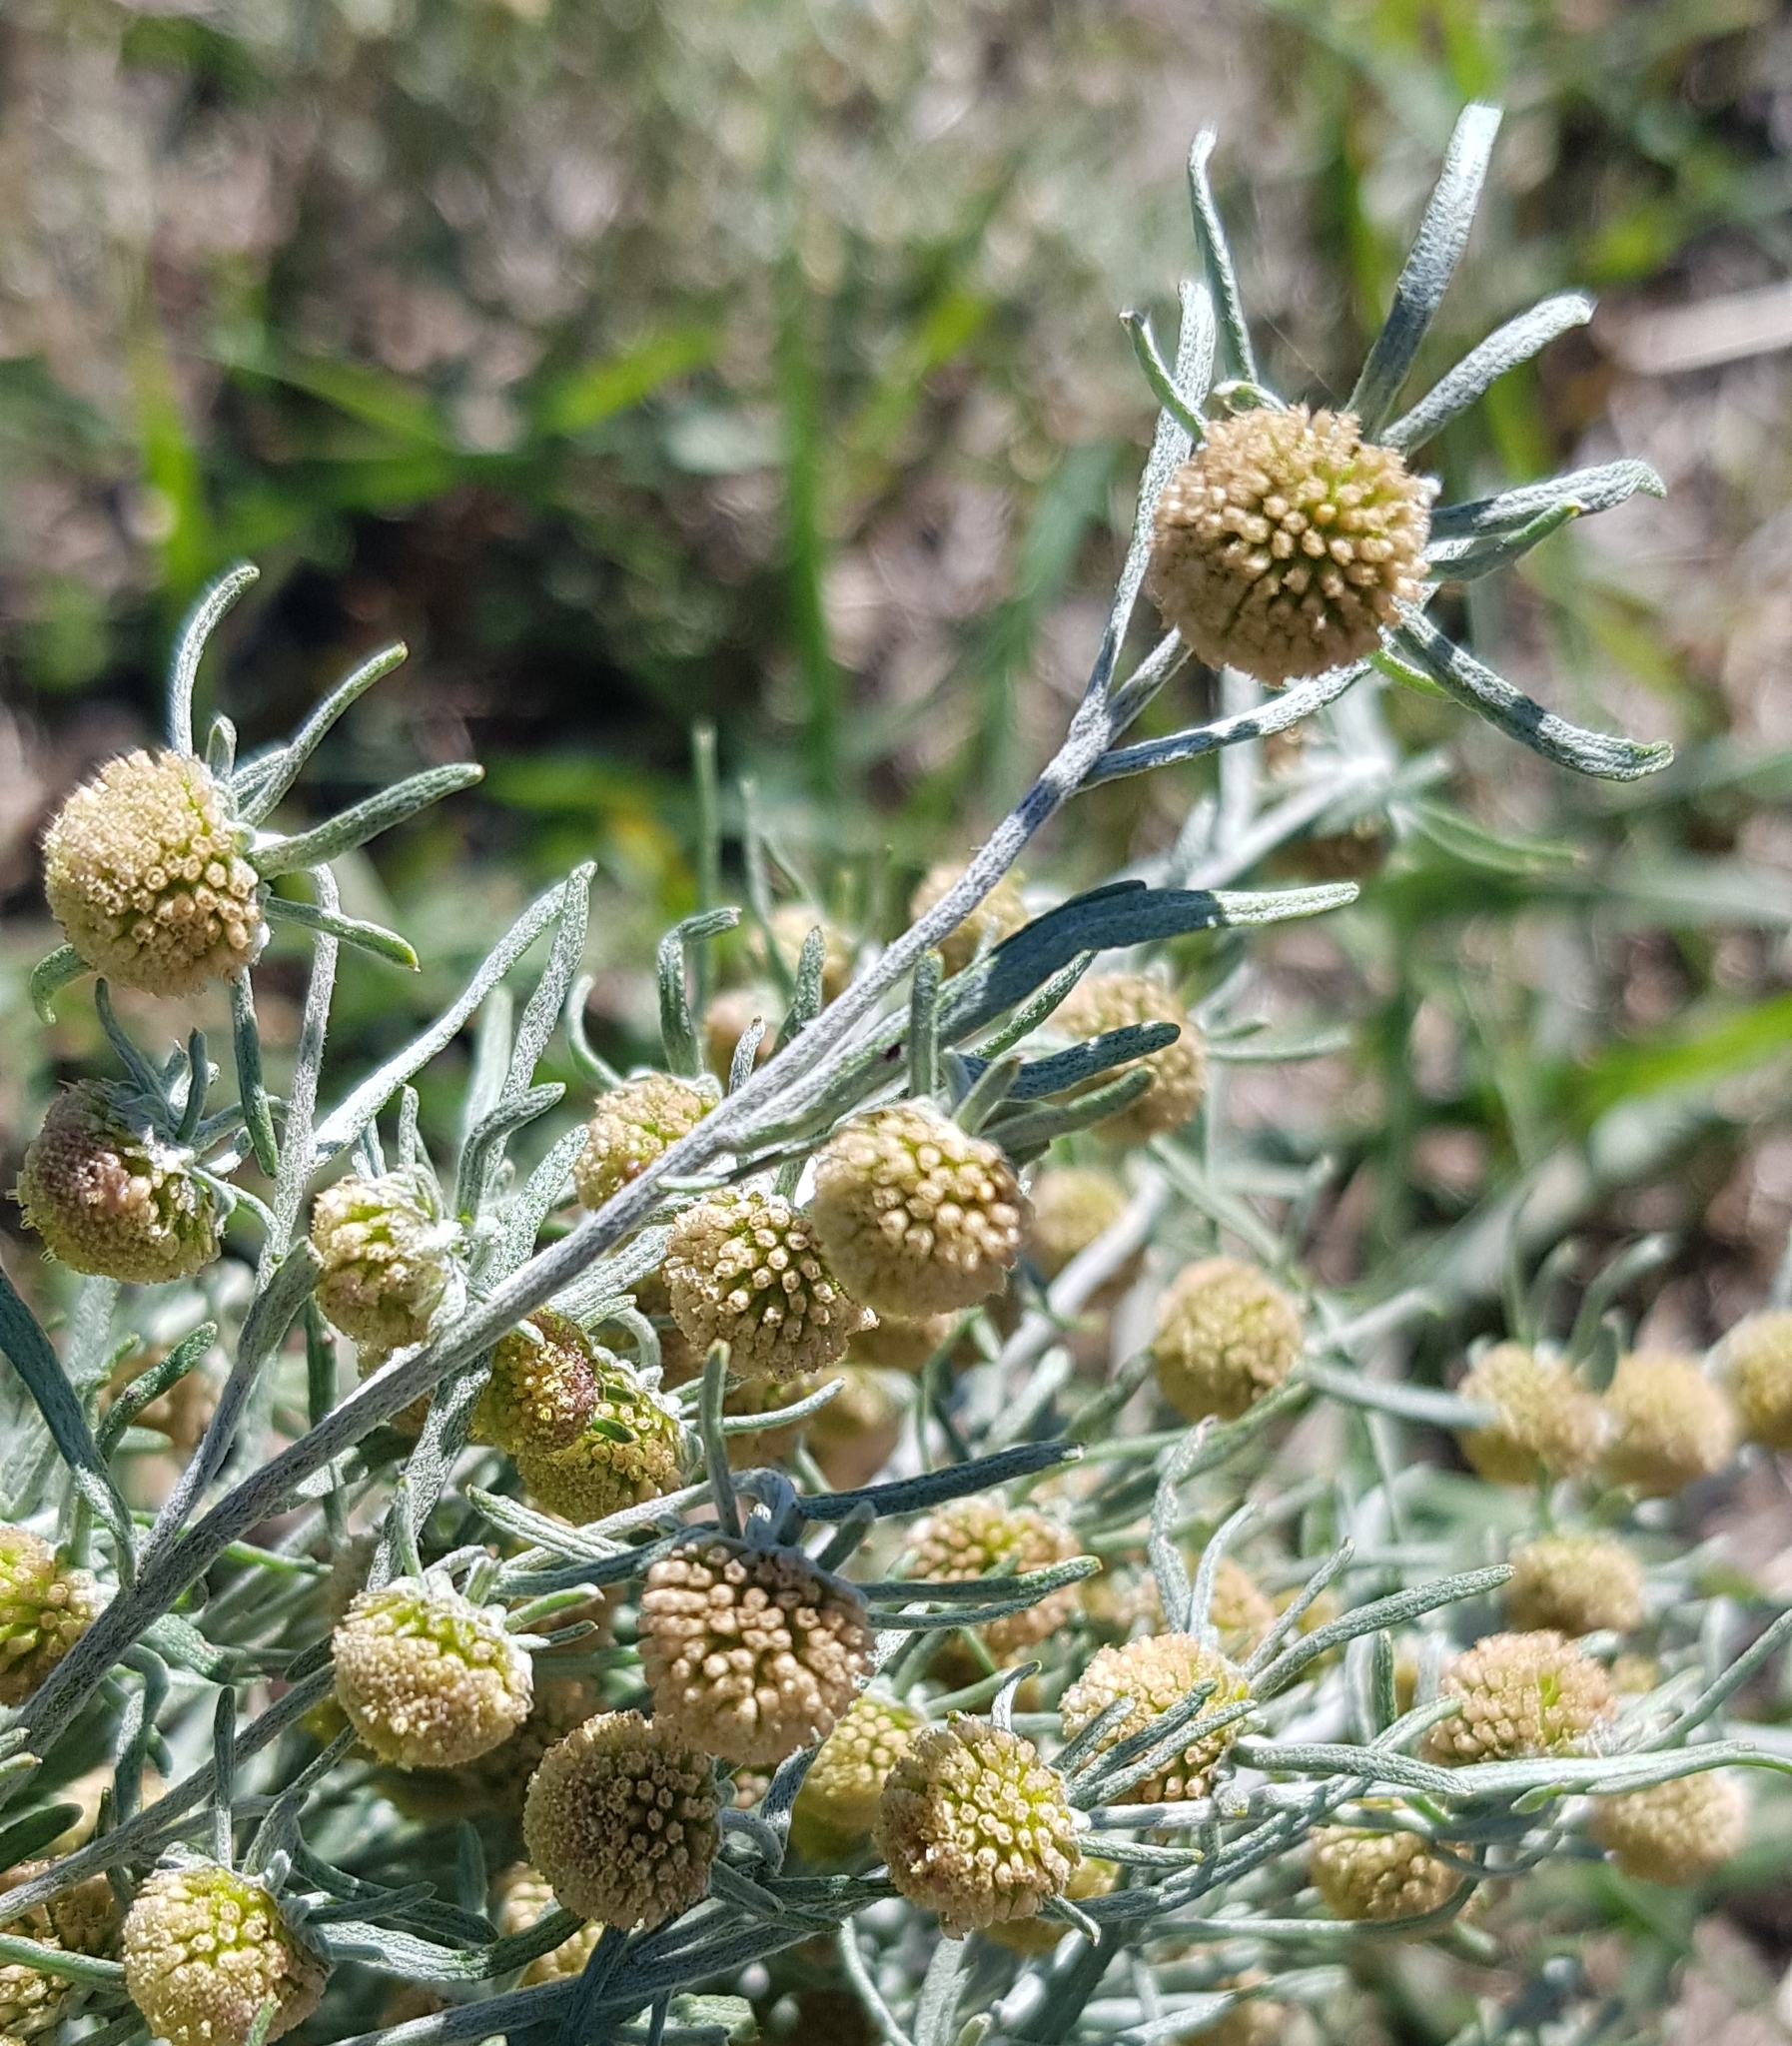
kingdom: Plantae
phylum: Tracheophyta
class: Magnoliopsida
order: Asterales
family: Asteraceae
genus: Artemisia
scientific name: Artemisia macrocephala
